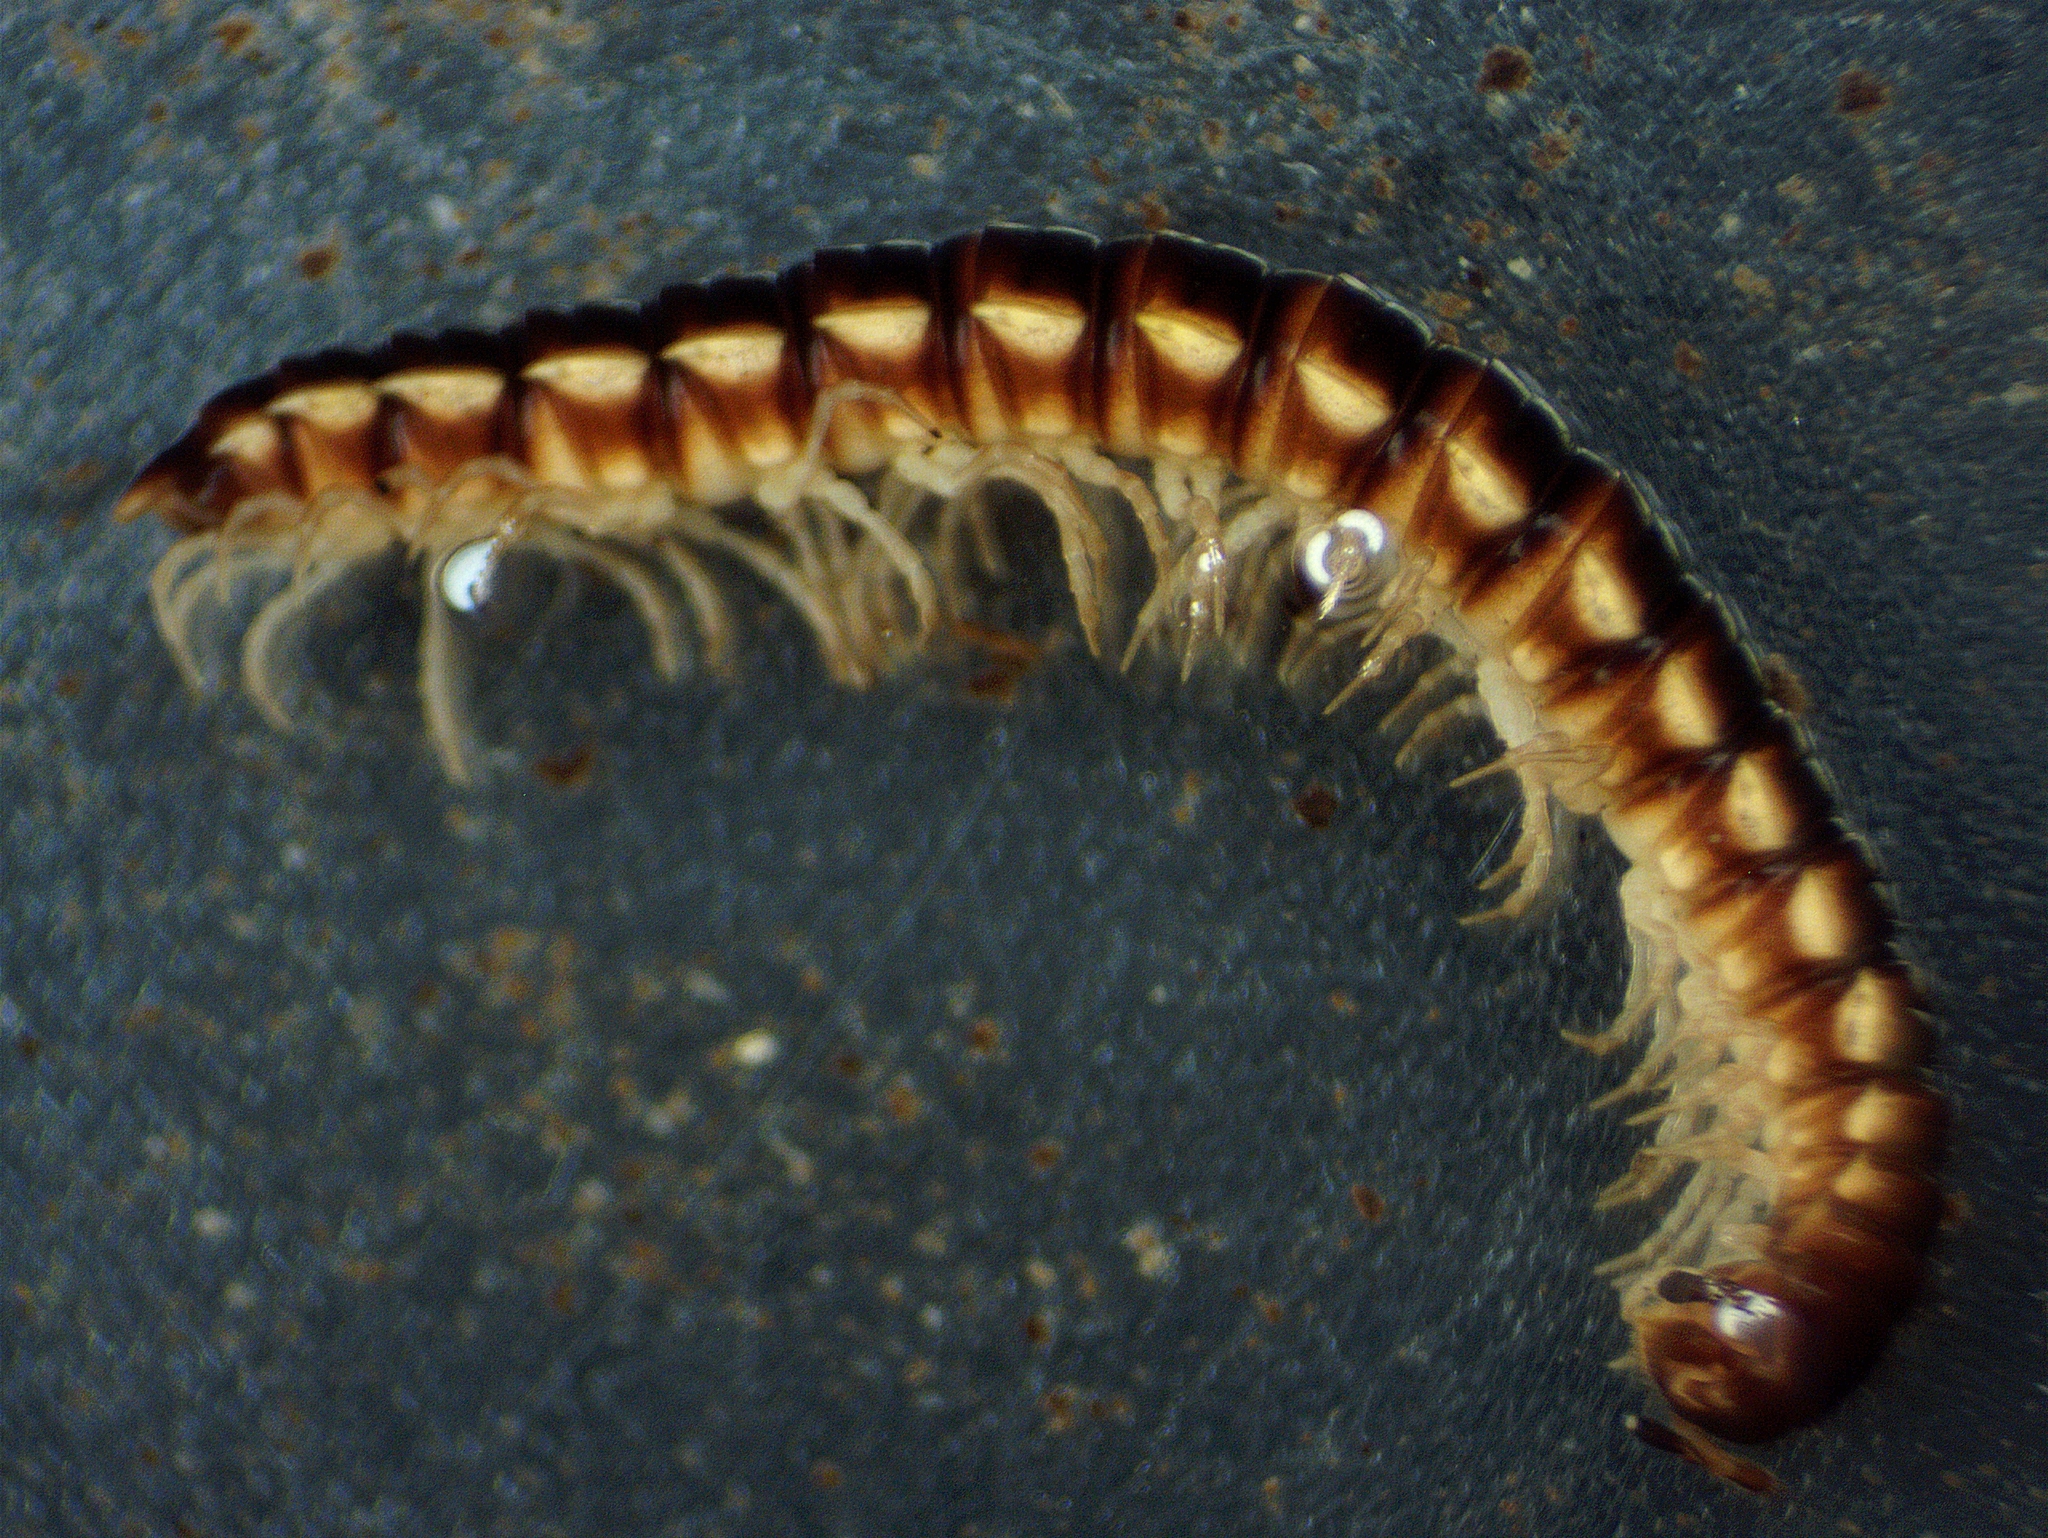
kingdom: Animalia
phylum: Arthropoda
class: Diplopoda
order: Polydesmida
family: Paradoxosomatidae
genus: Oxidus
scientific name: Oxidus gracilis
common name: Greenhouse millipede
